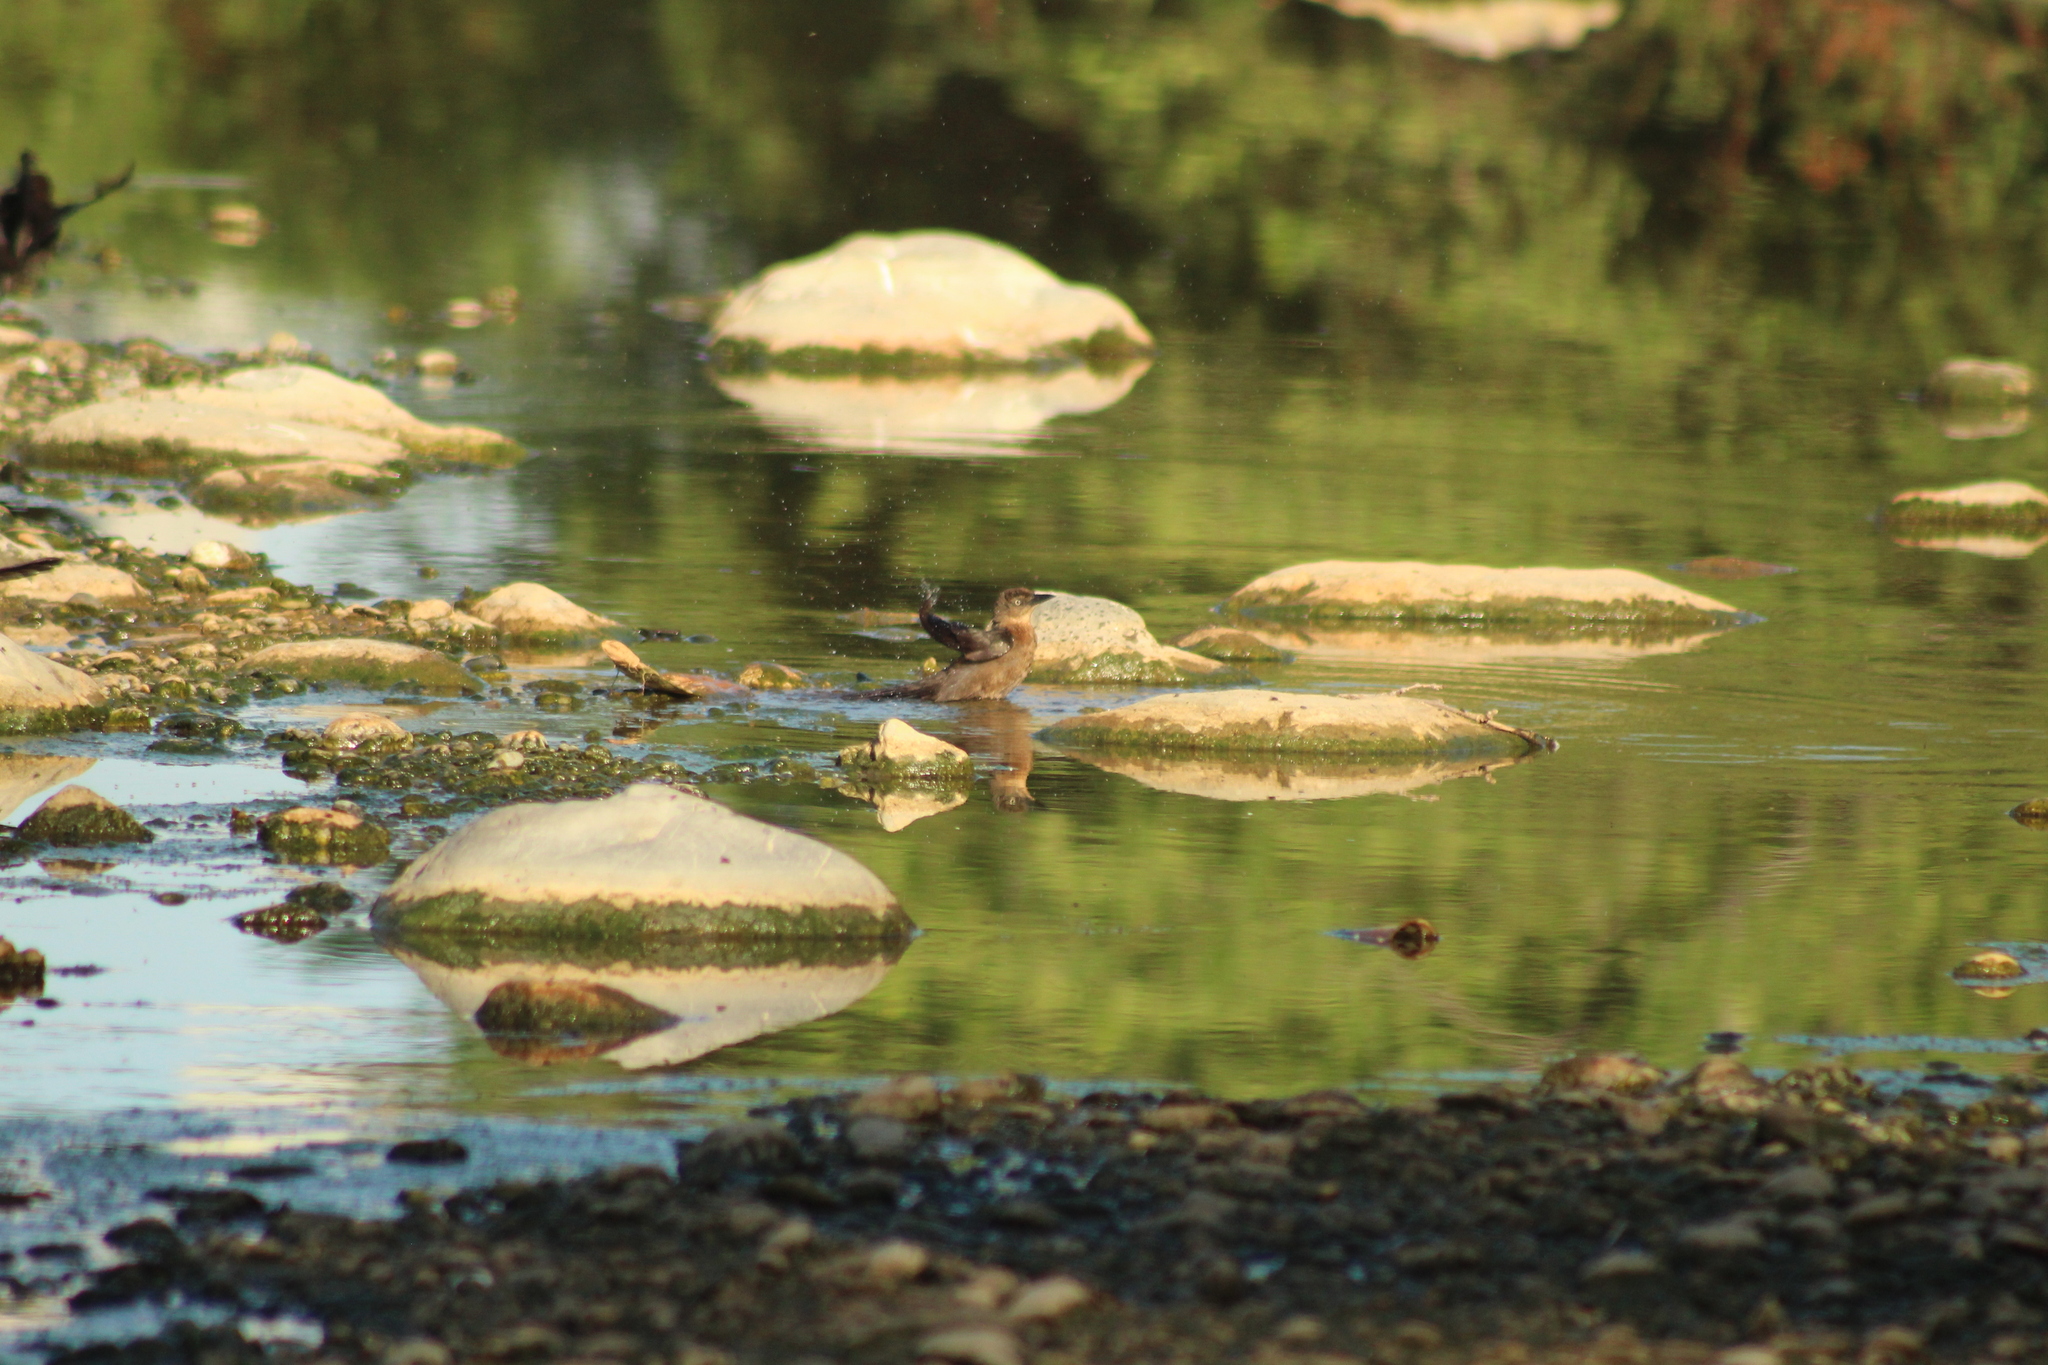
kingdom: Animalia
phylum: Chordata
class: Aves
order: Passeriformes
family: Icteridae
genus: Quiscalus
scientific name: Quiscalus mexicanus
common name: Great-tailed grackle
